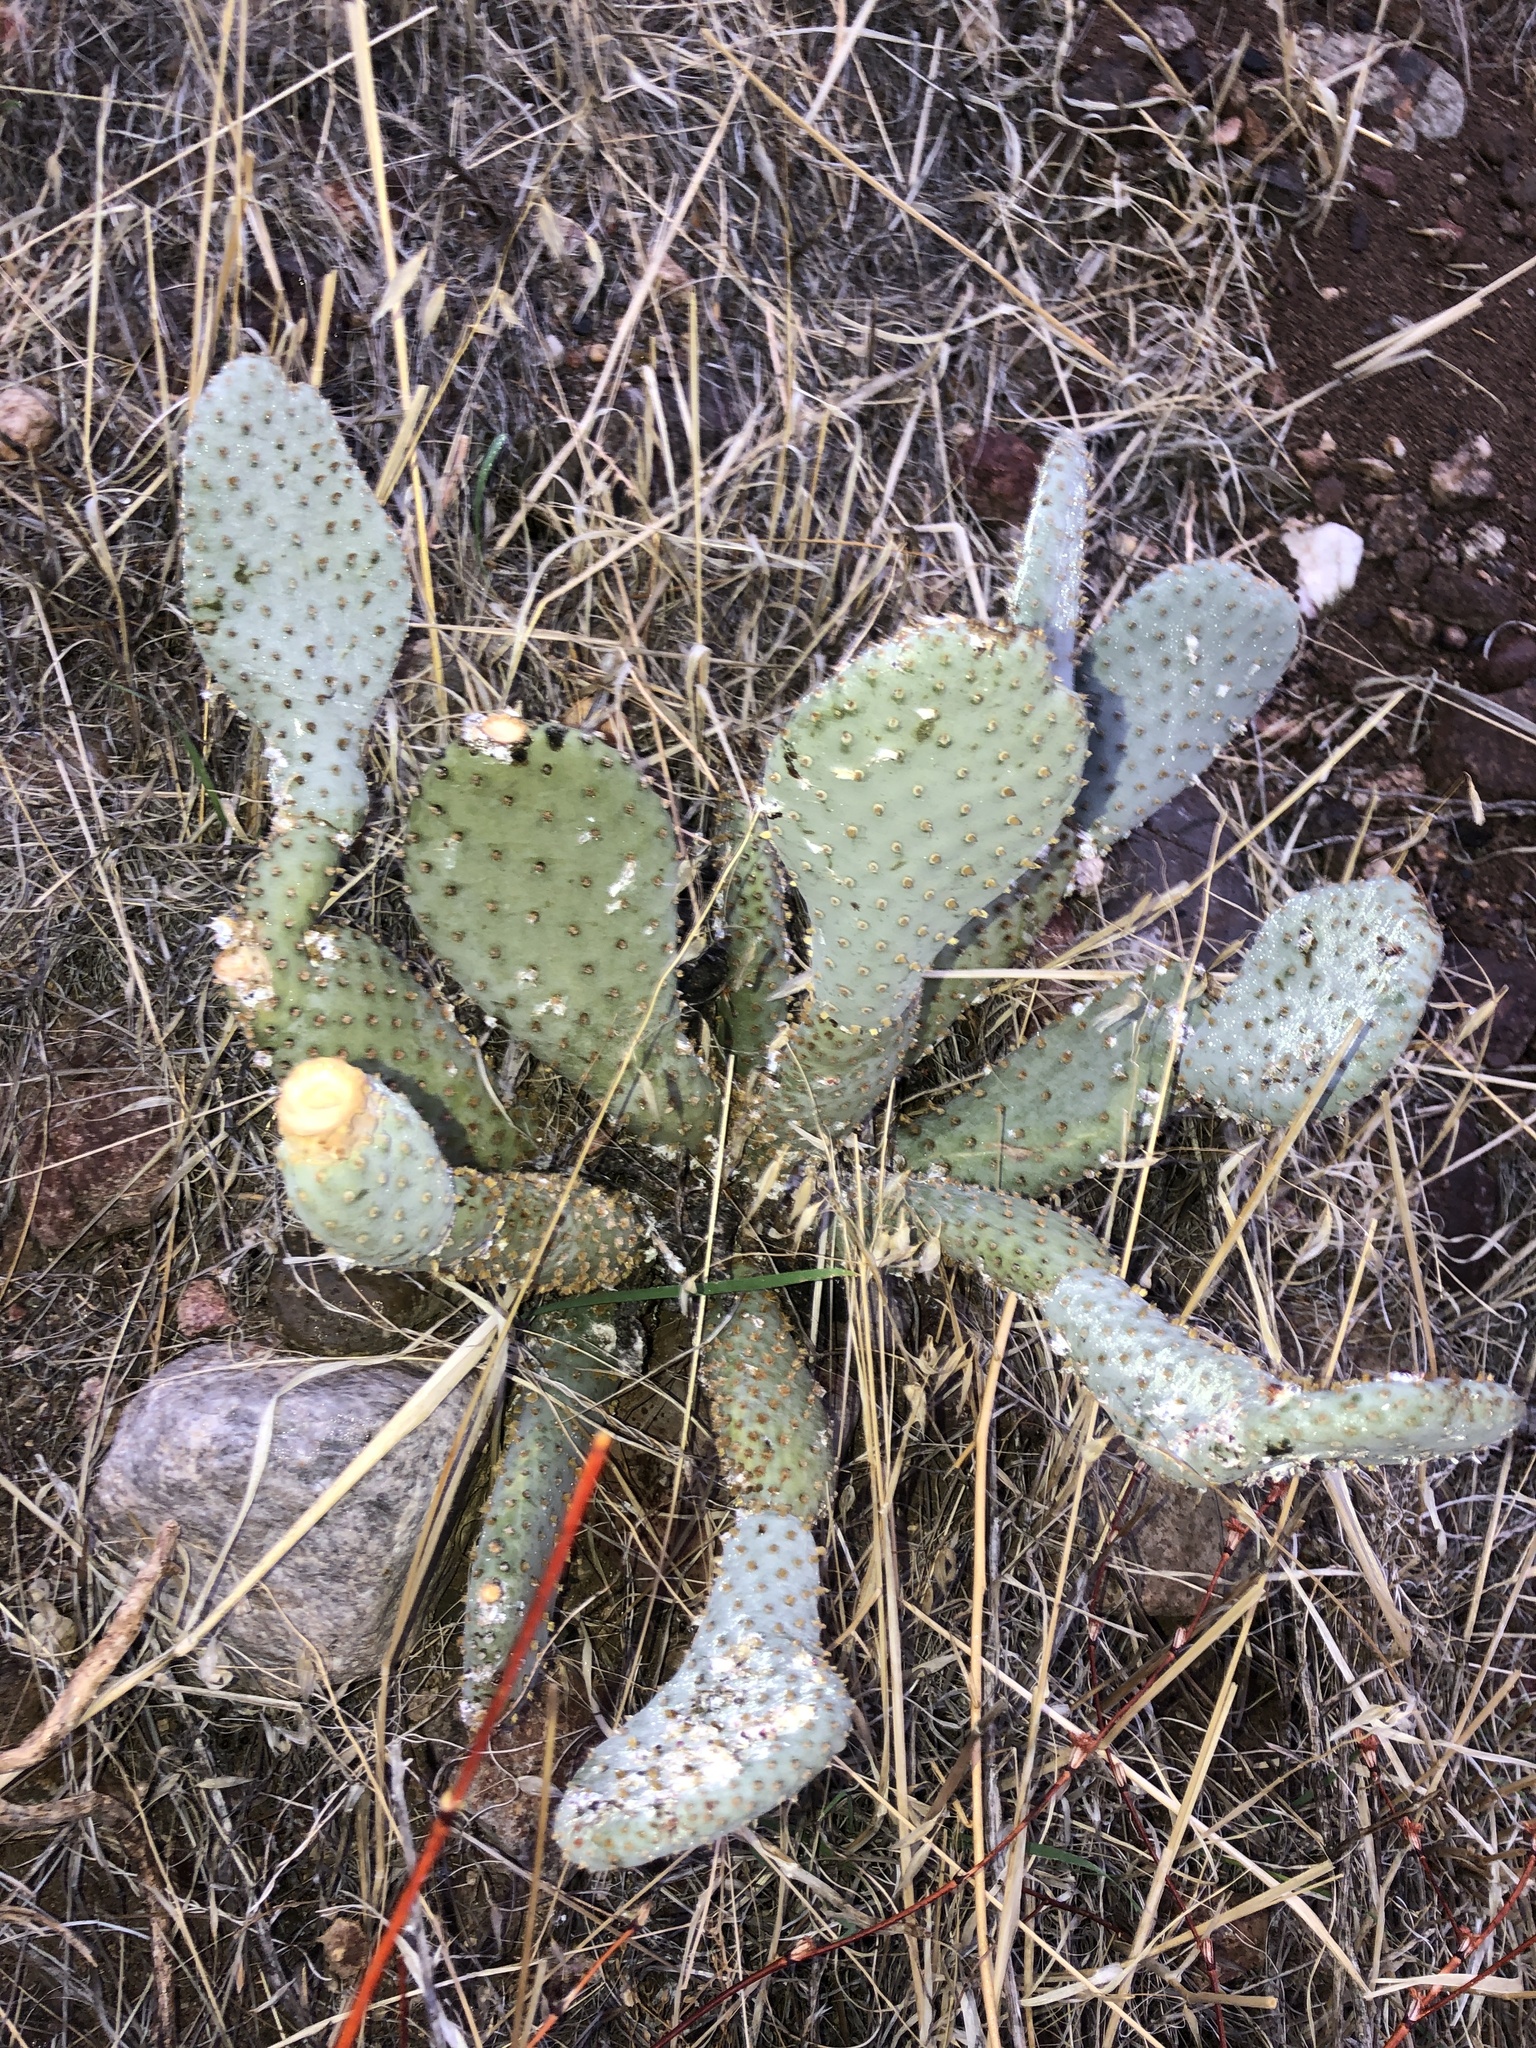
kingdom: Plantae
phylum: Tracheophyta
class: Magnoliopsida
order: Caryophyllales
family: Cactaceae
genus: Opuntia
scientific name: Opuntia basilaris
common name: Beavertail prickly-pear
